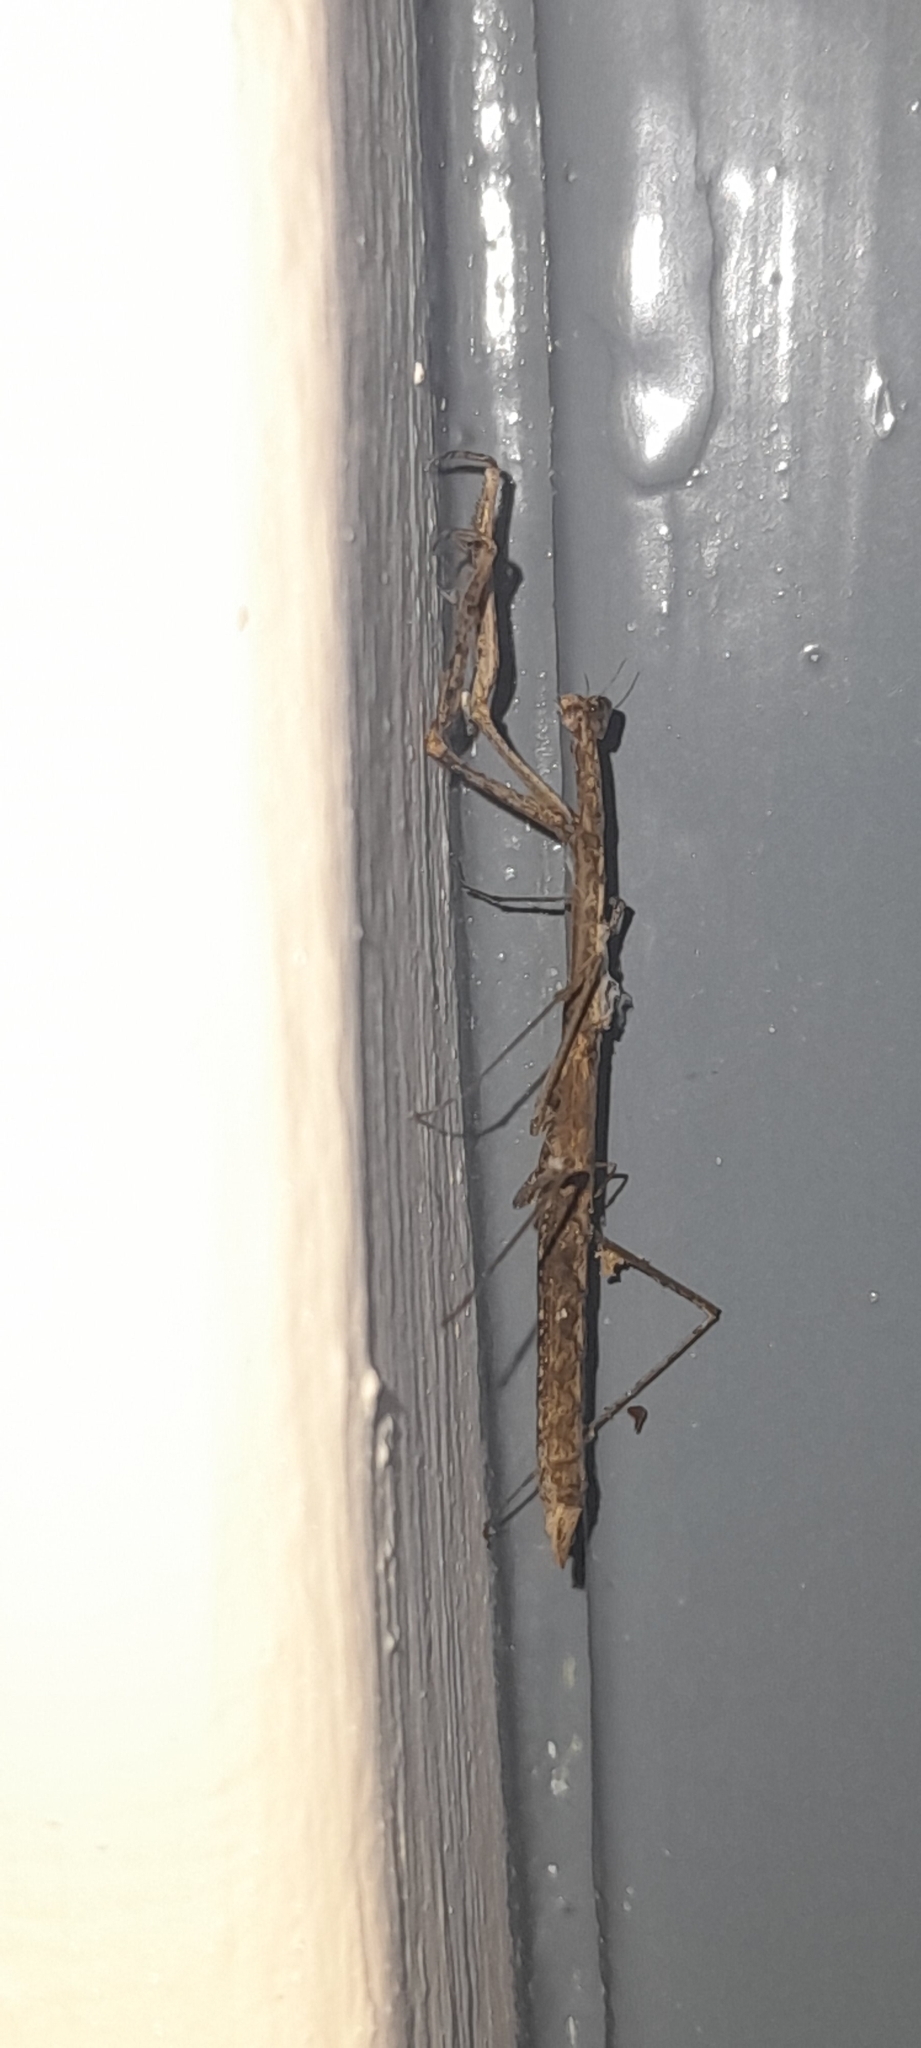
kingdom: Animalia
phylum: Arthropoda
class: Insecta
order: Mantodea
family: Eremiaphilidae
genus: Parathespis
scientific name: Parathespis humbertiana
